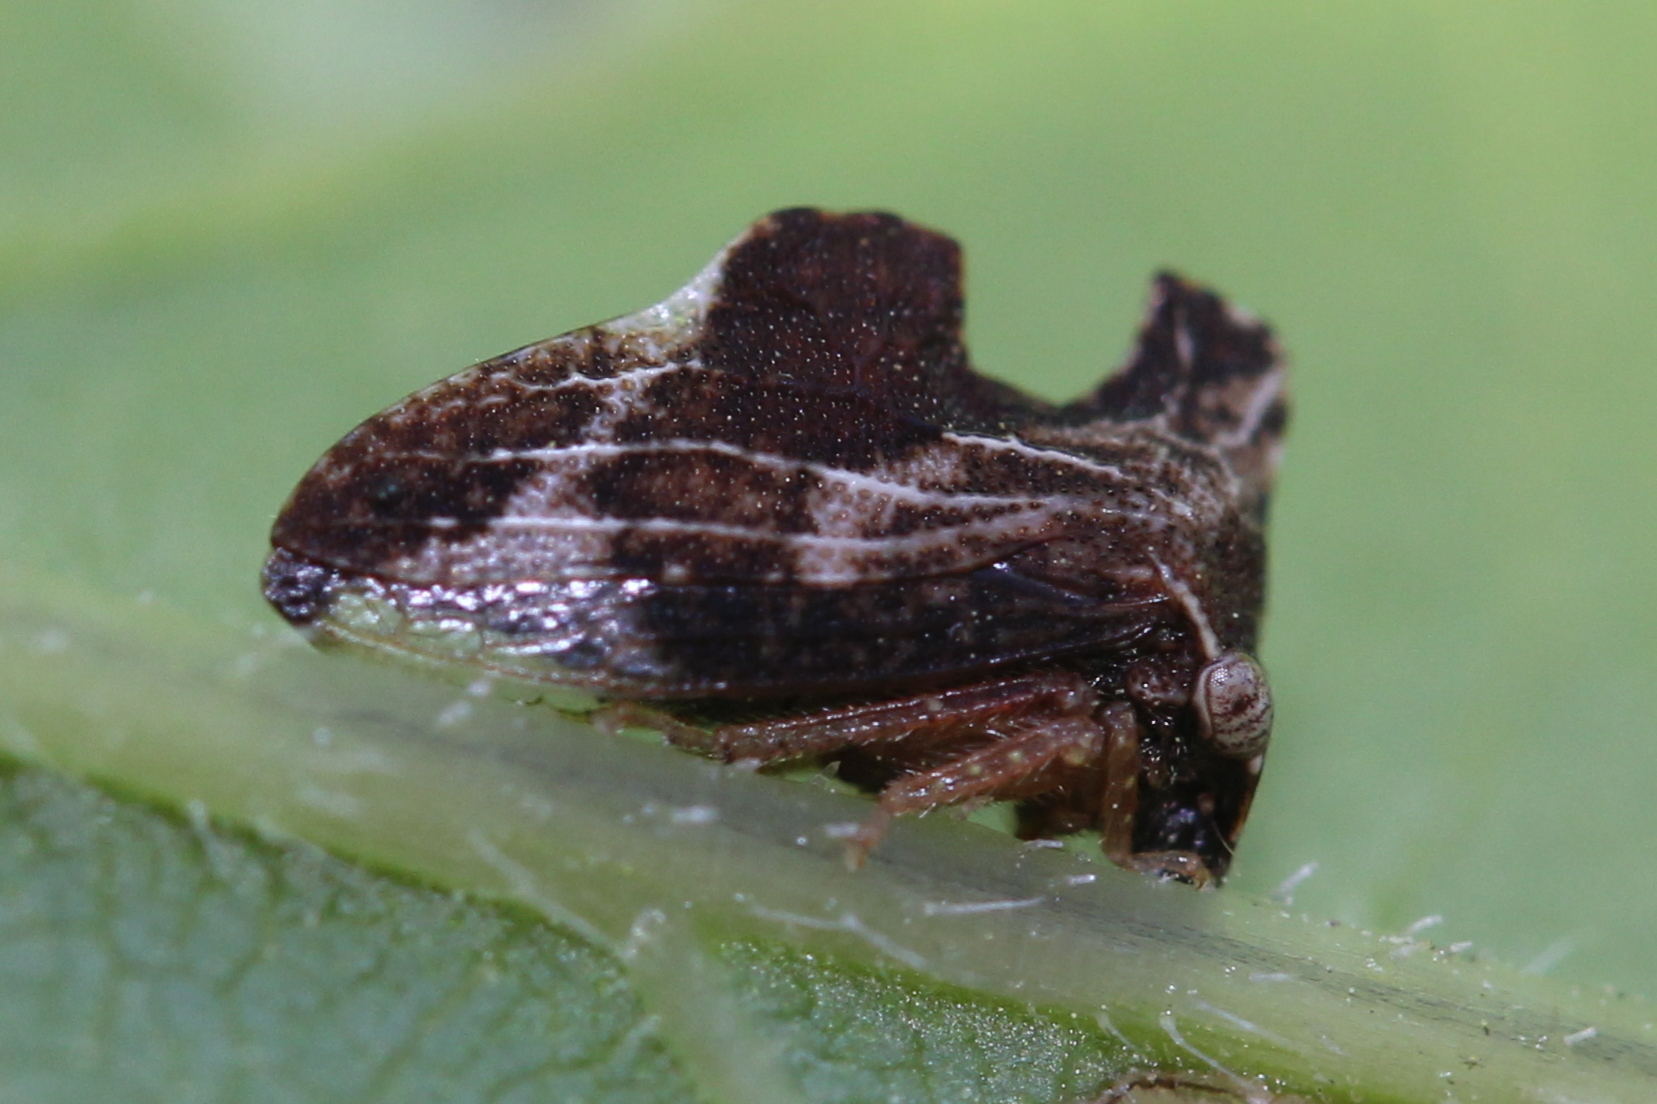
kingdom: Animalia
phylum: Arthropoda
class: Insecta
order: Hemiptera
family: Membracidae
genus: Entylia
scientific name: Entylia carinata
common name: Keeled treehopper
